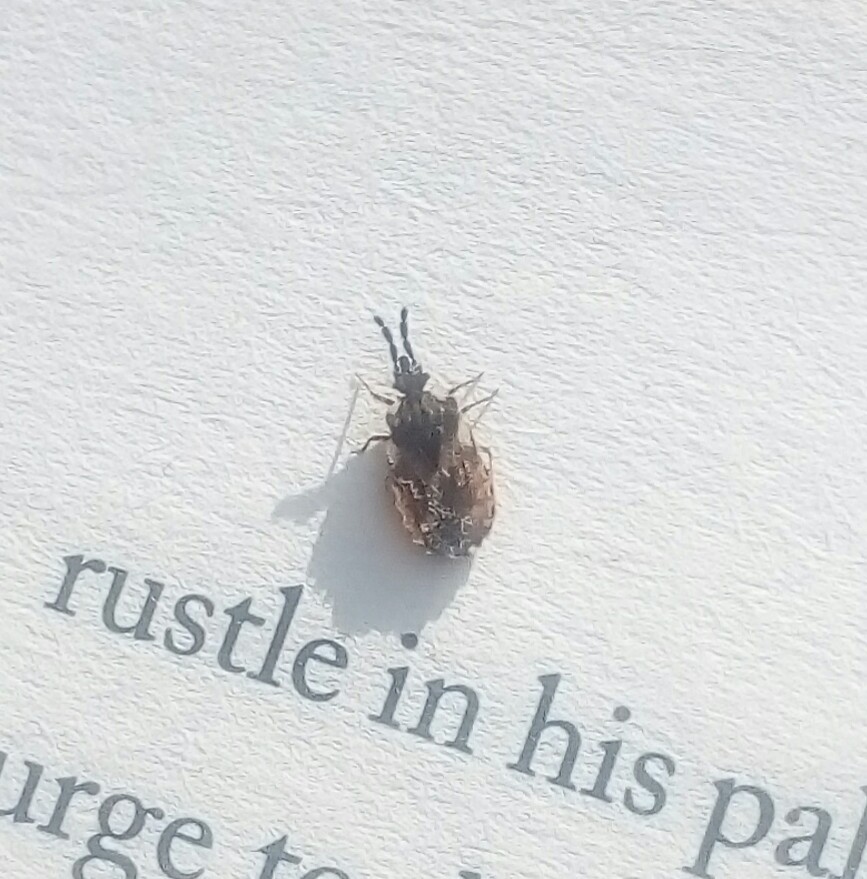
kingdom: Animalia
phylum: Arthropoda
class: Insecta
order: Hemiptera
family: Aradidae
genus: Aradus
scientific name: Aradus depressus
